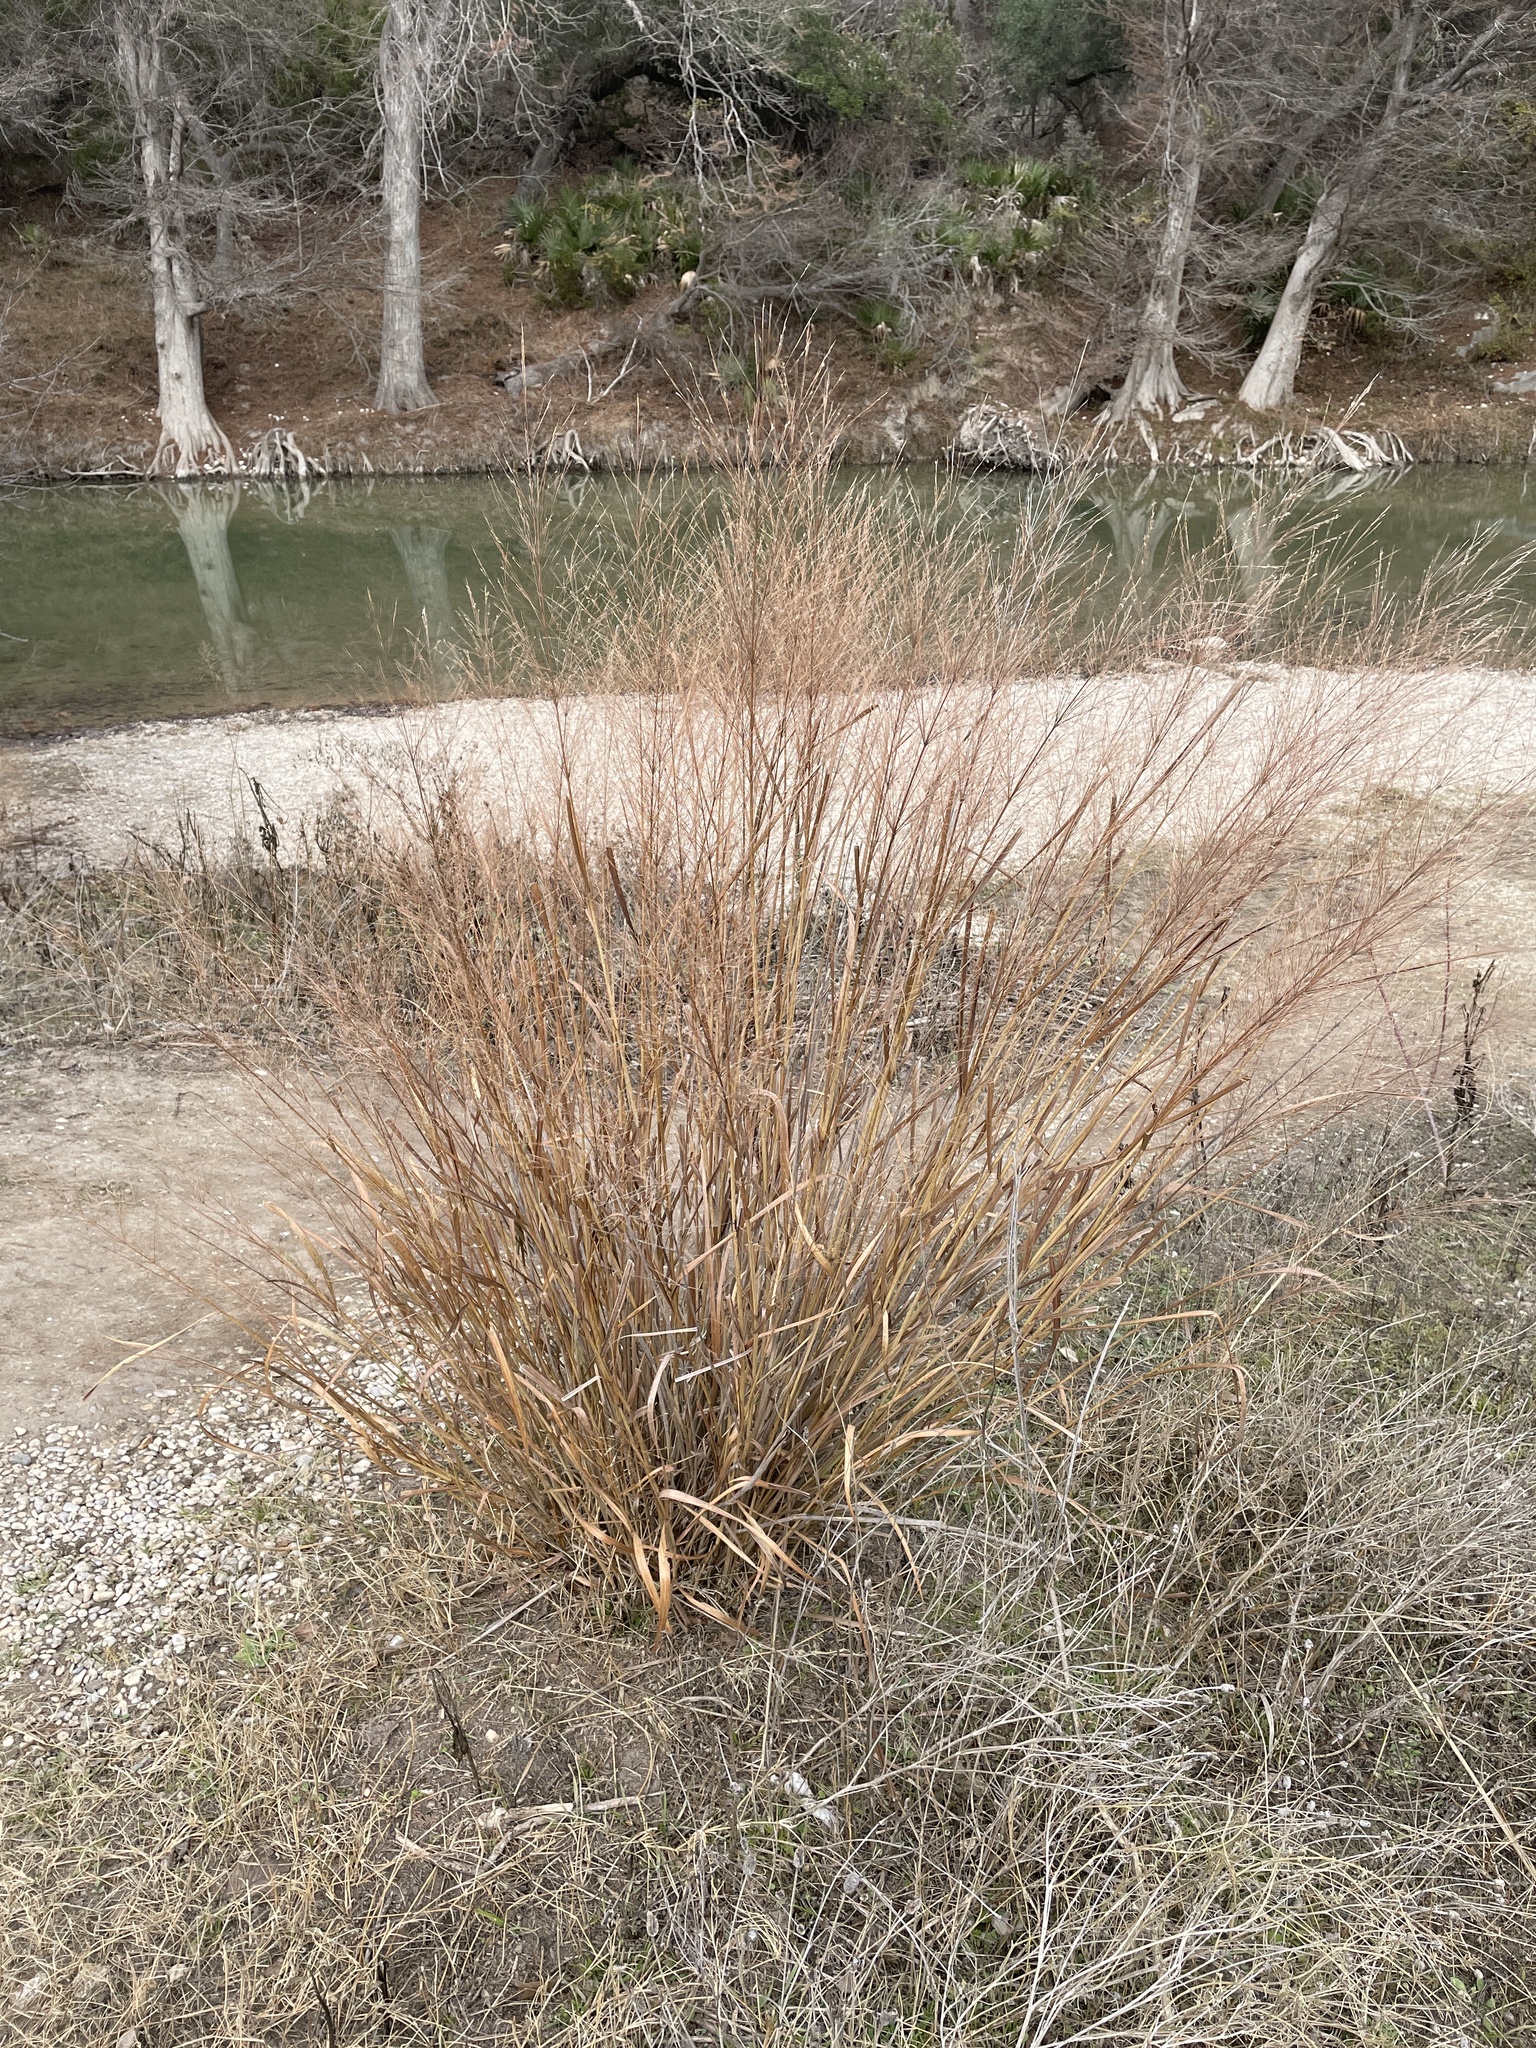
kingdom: Plantae
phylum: Tracheophyta
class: Liliopsida
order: Poales
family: Poaceae
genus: Panicum
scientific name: Panicum virgatum
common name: Switchgrass
